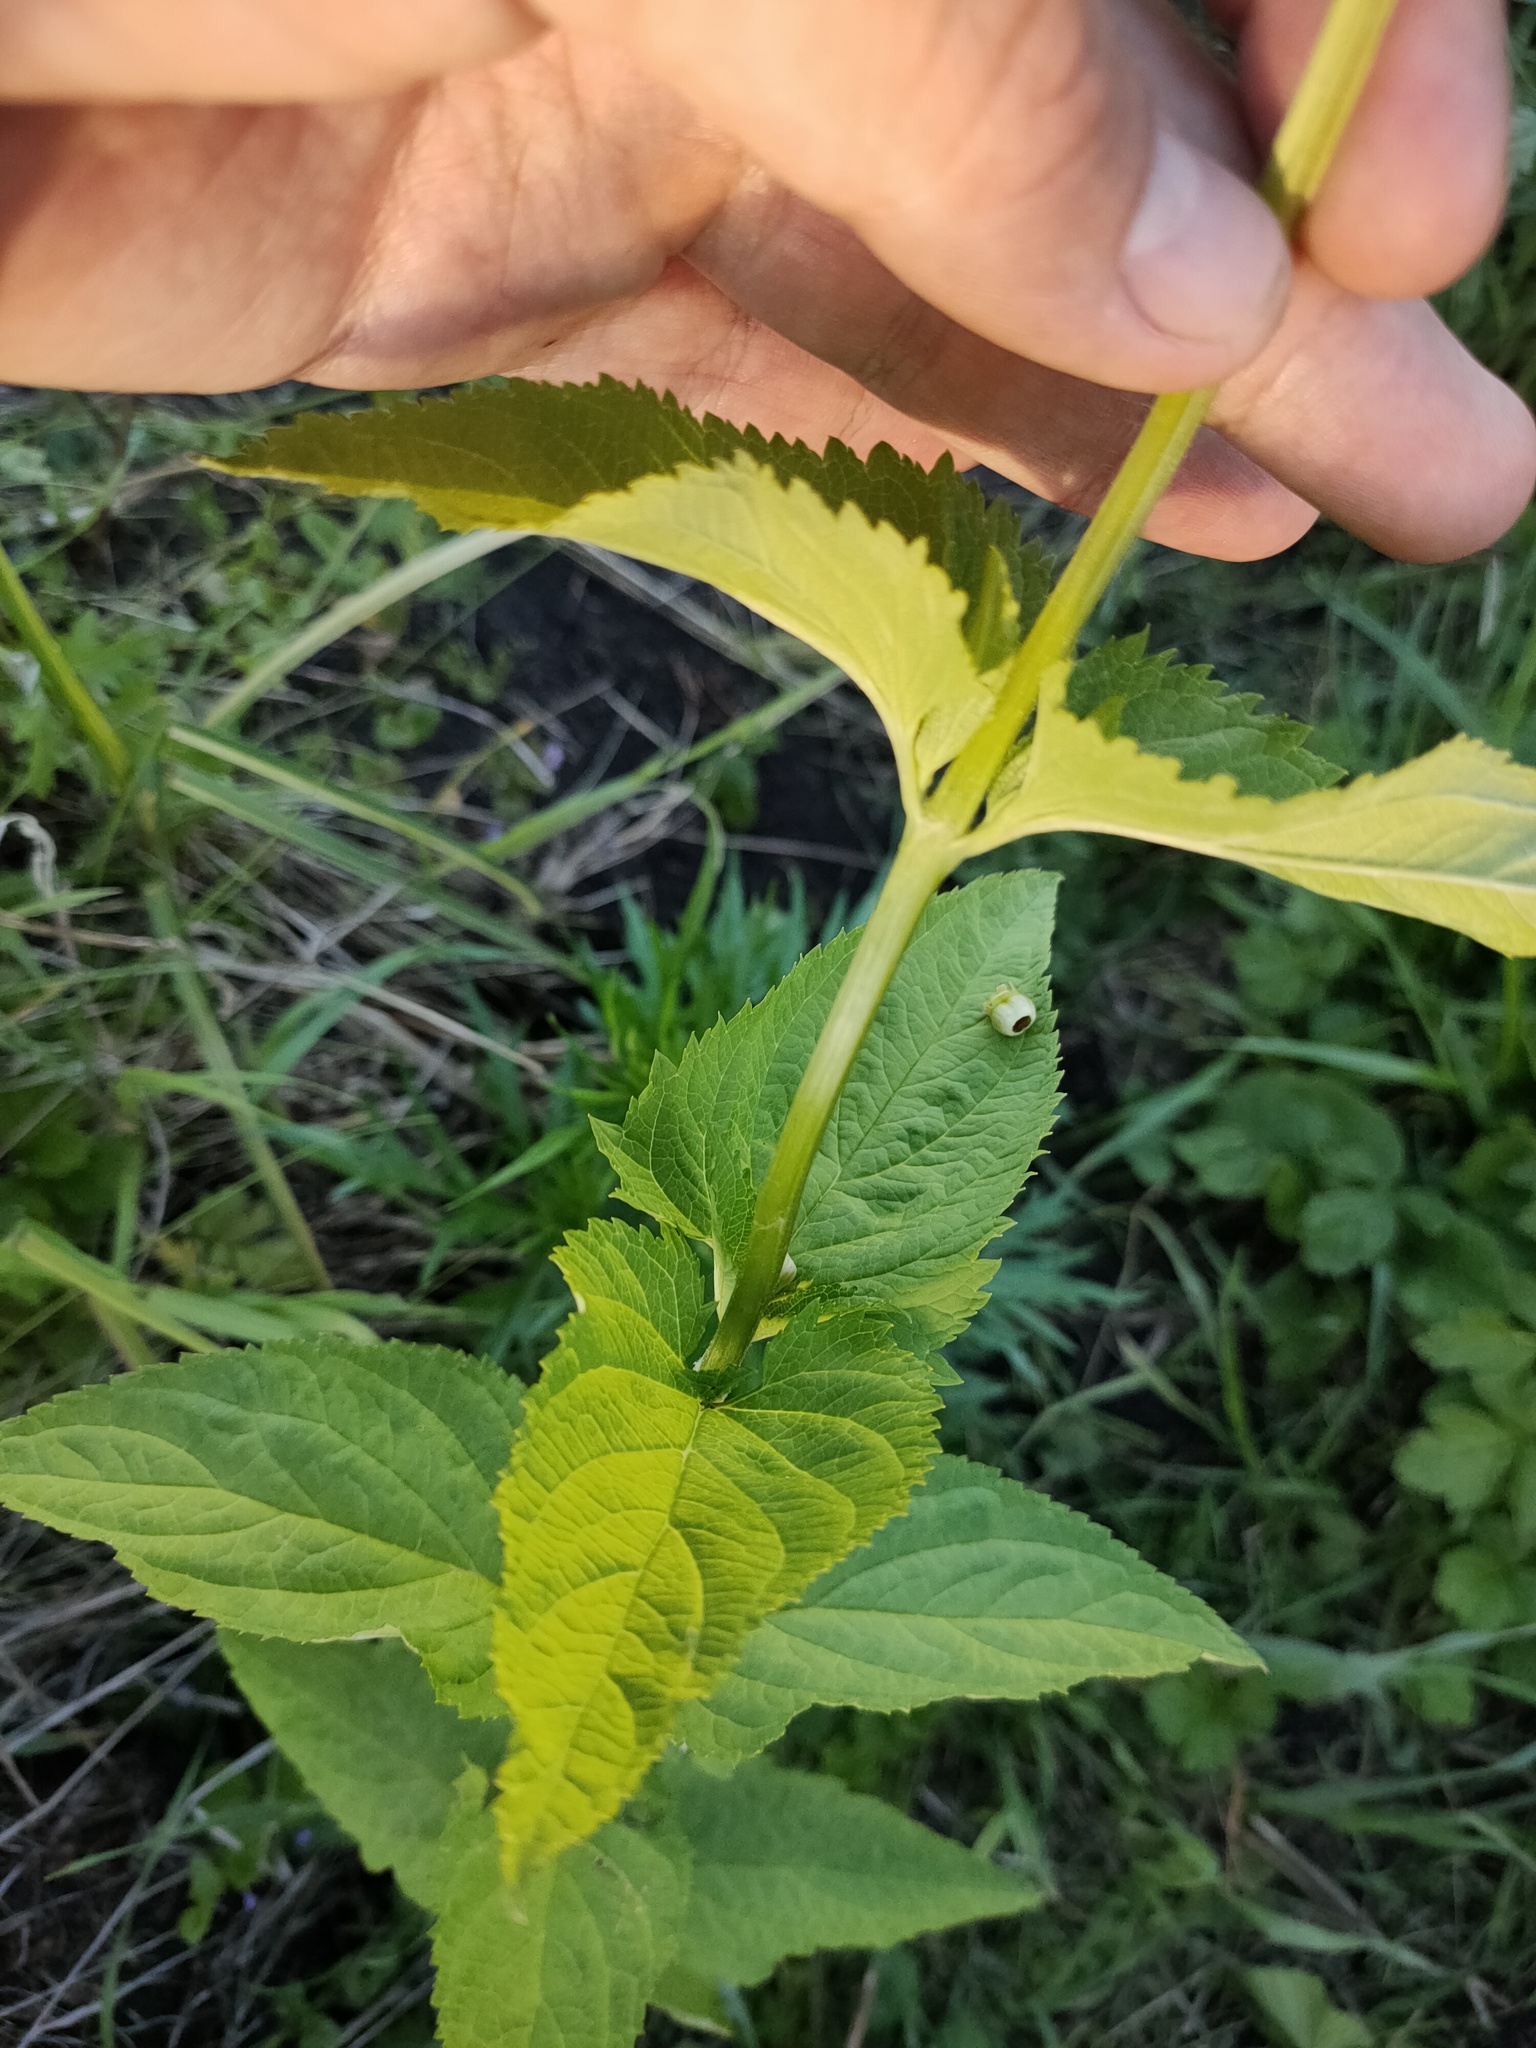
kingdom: Plantae
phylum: Tracheophyta
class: Magnoliopsida
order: Lamiales
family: Scrophulariaceae
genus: Scrophularia
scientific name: Scrophularia nodosa
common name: Common figwort
